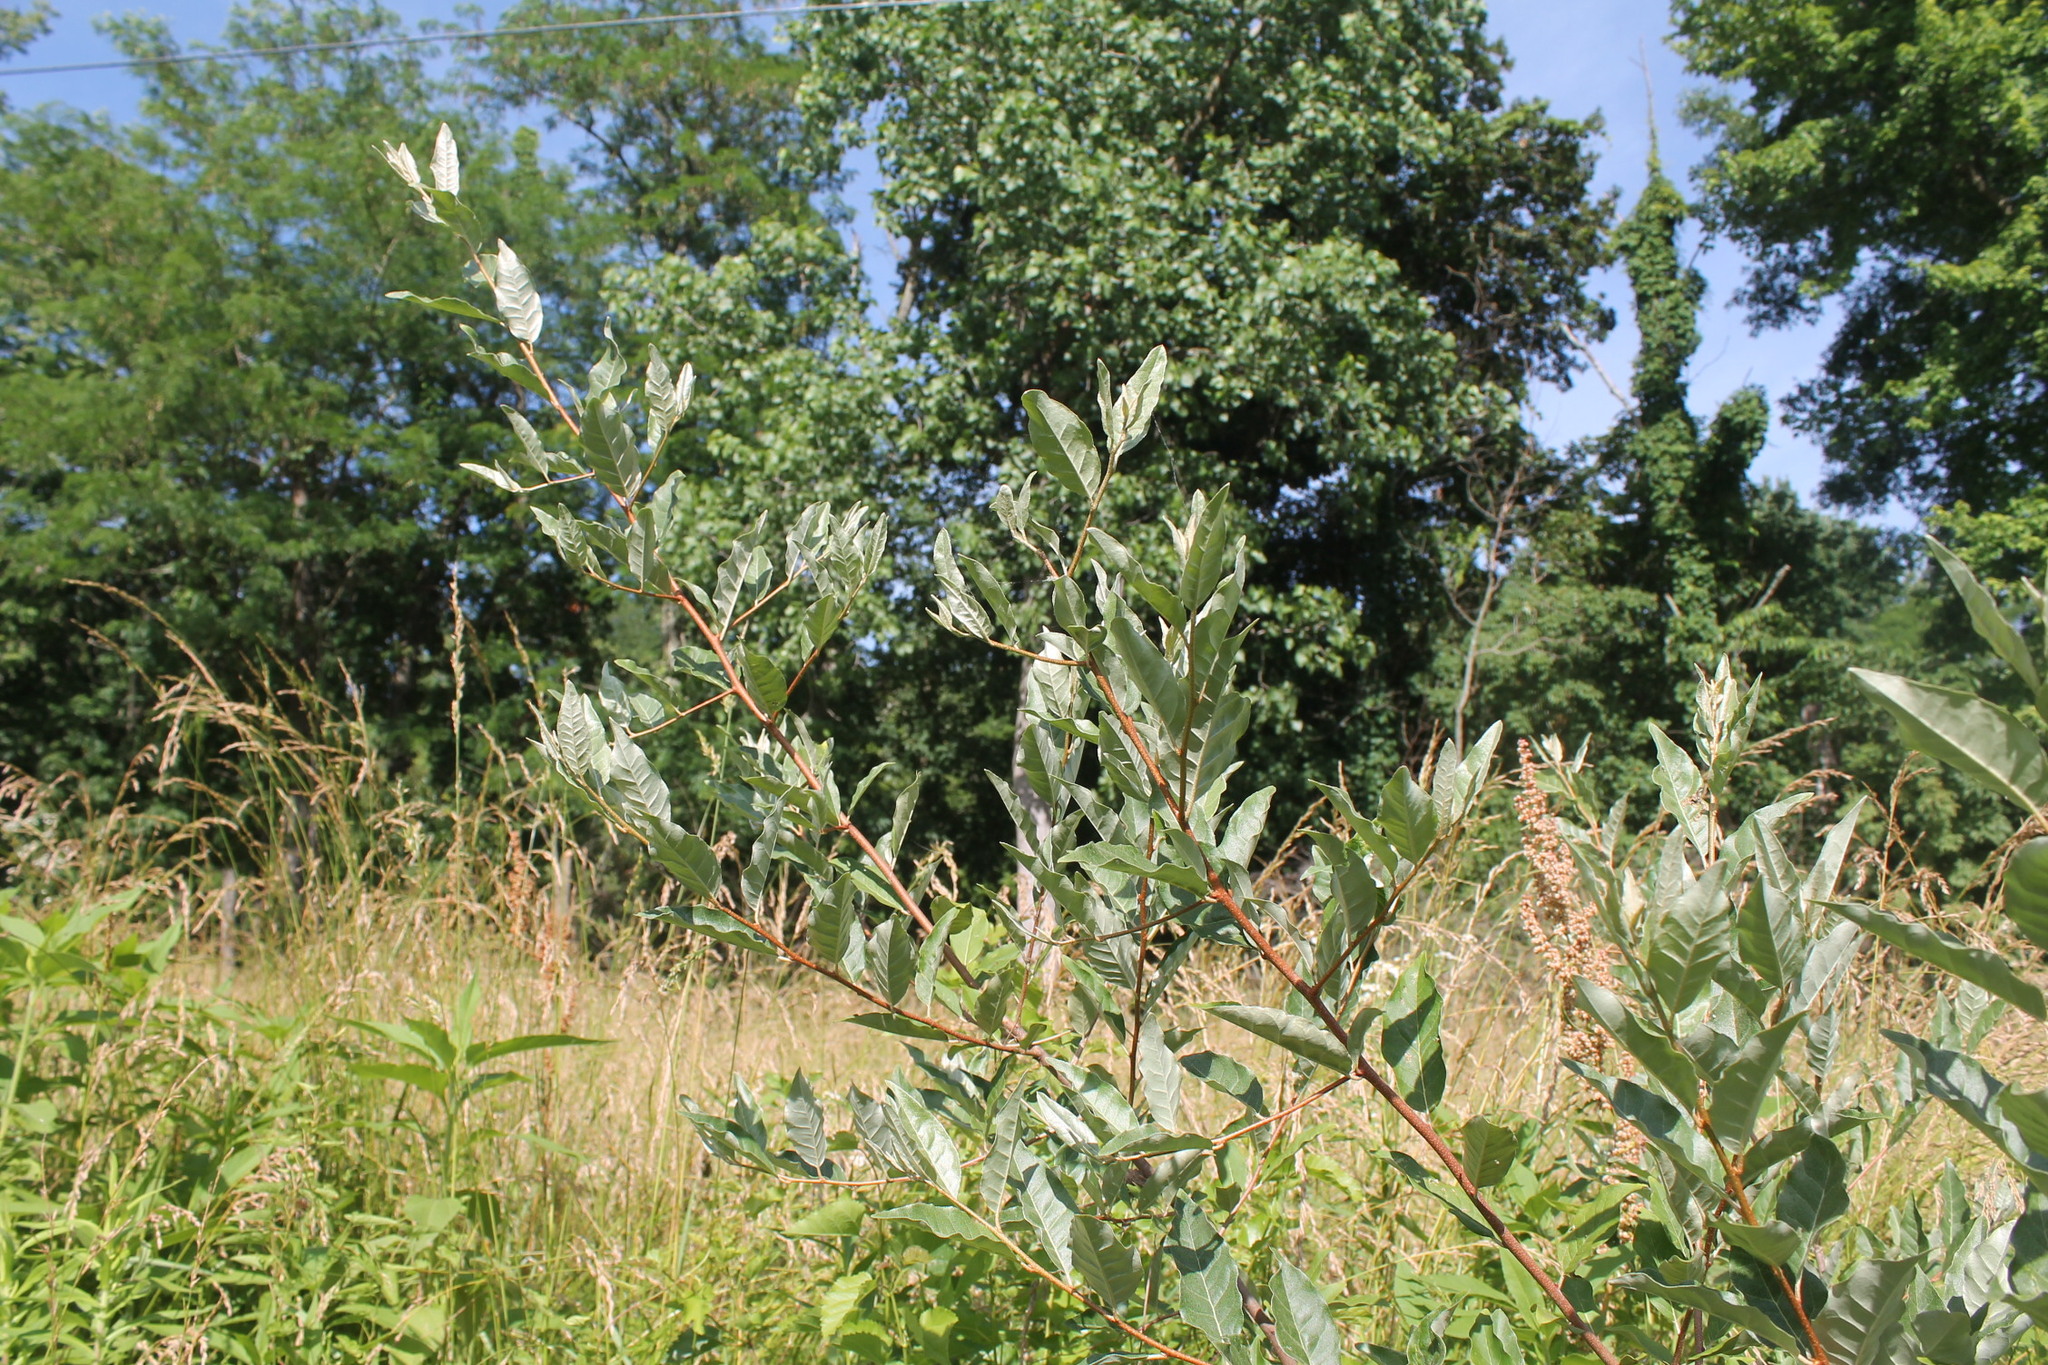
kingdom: Plantae
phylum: Tracheophyta
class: Magnoliopsida
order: Rosales
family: Elaeagnaceae
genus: Elaeagnus
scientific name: Elaeagnus umbellata
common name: Autumn olive
